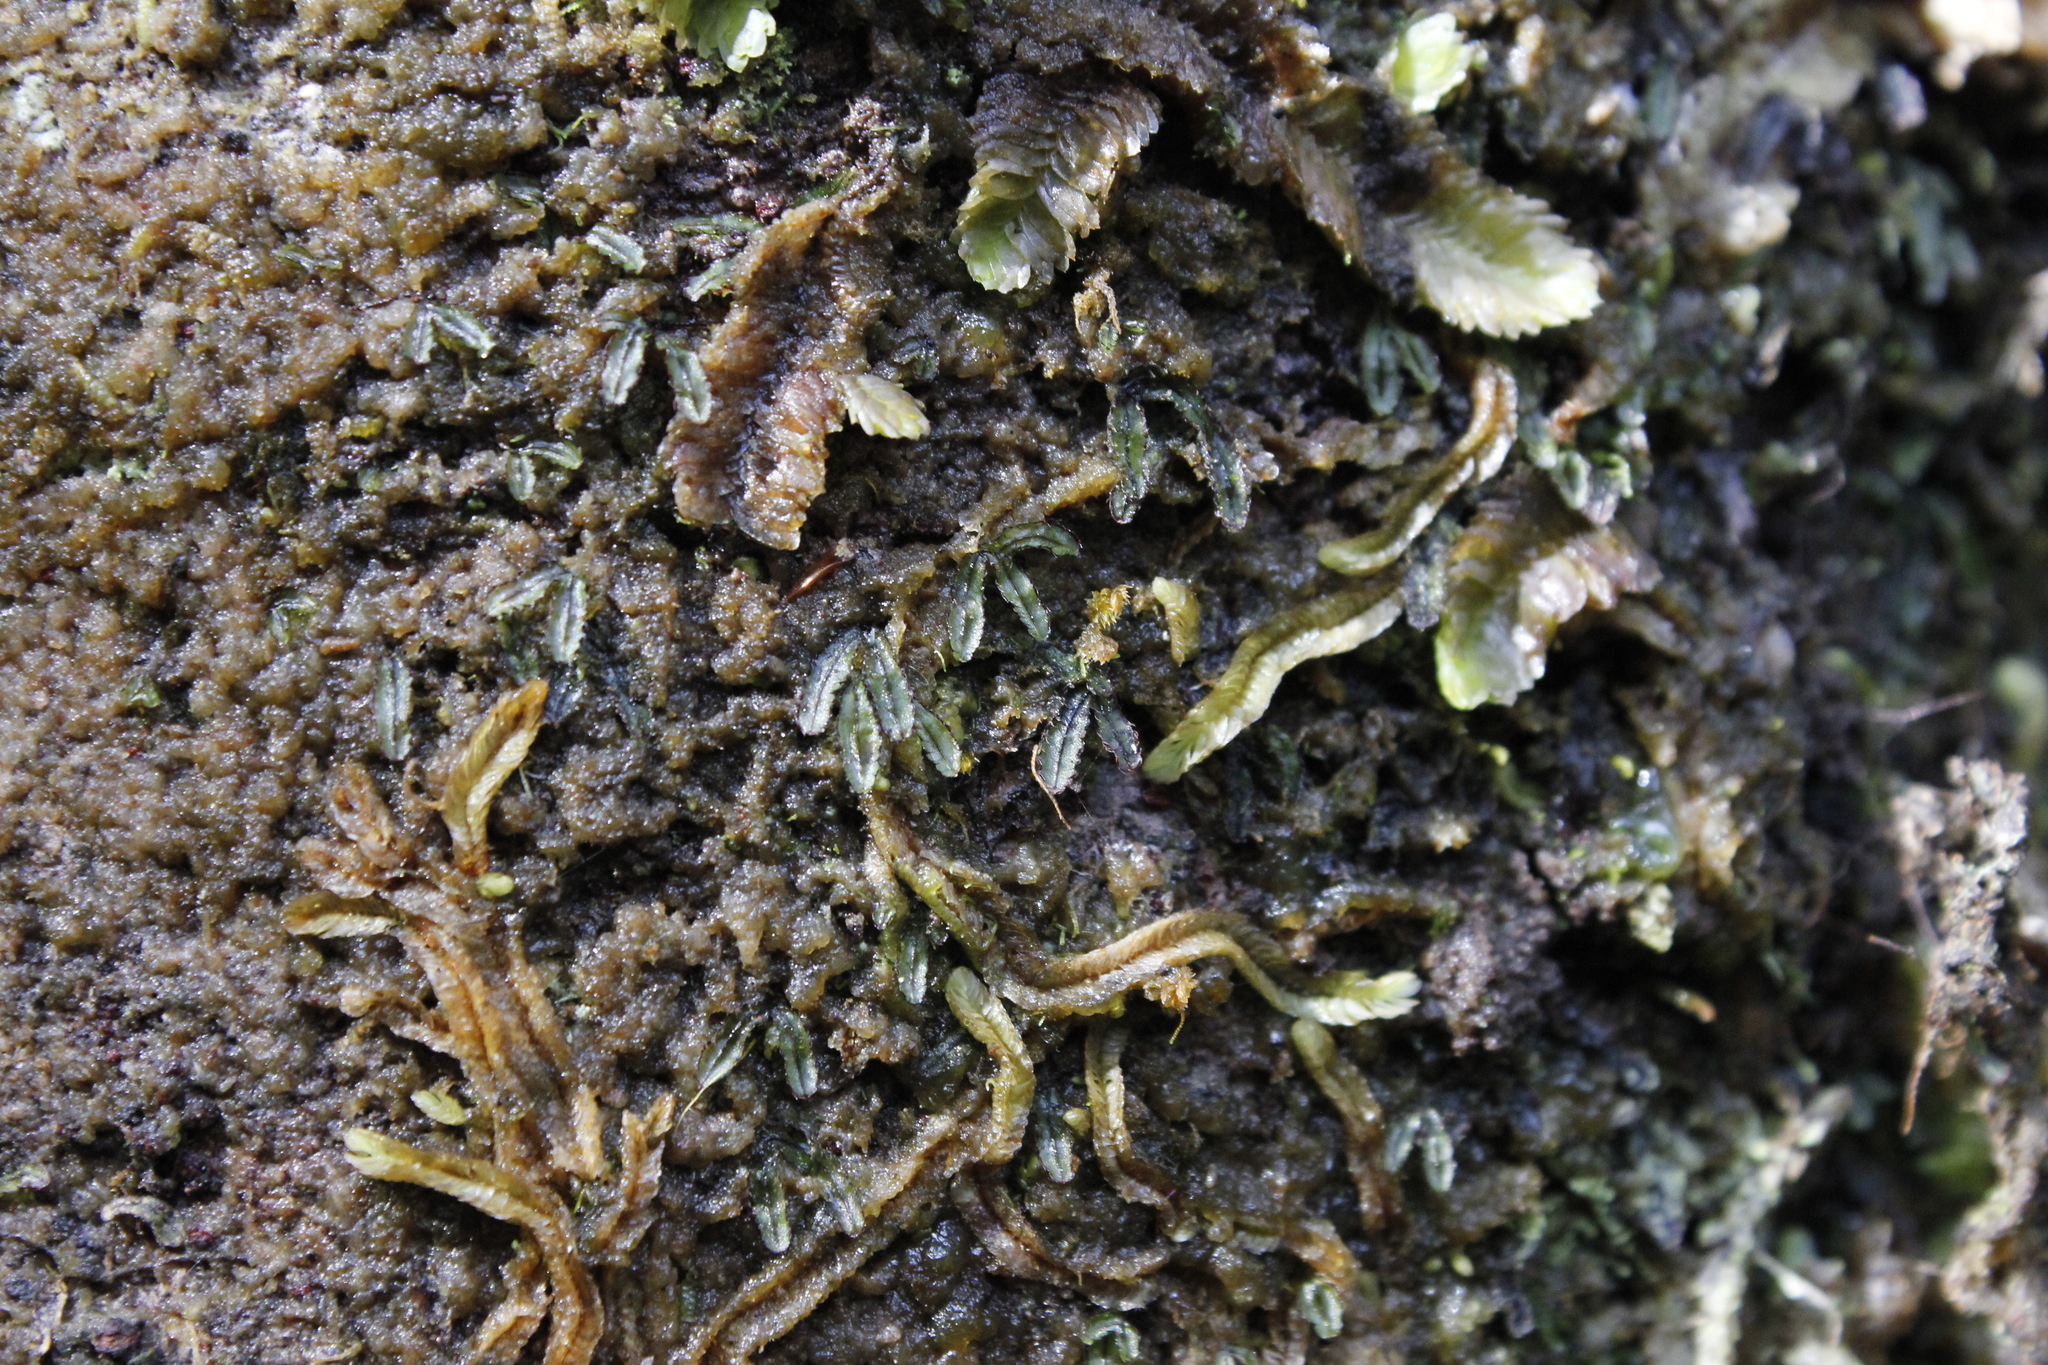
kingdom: Plantae
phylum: Tracheophyta
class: Polypodiopsida
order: Hymenophyllales
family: Hymenophyllaceae
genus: Hymenophyllum
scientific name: Hymenophyllum armstrongii
